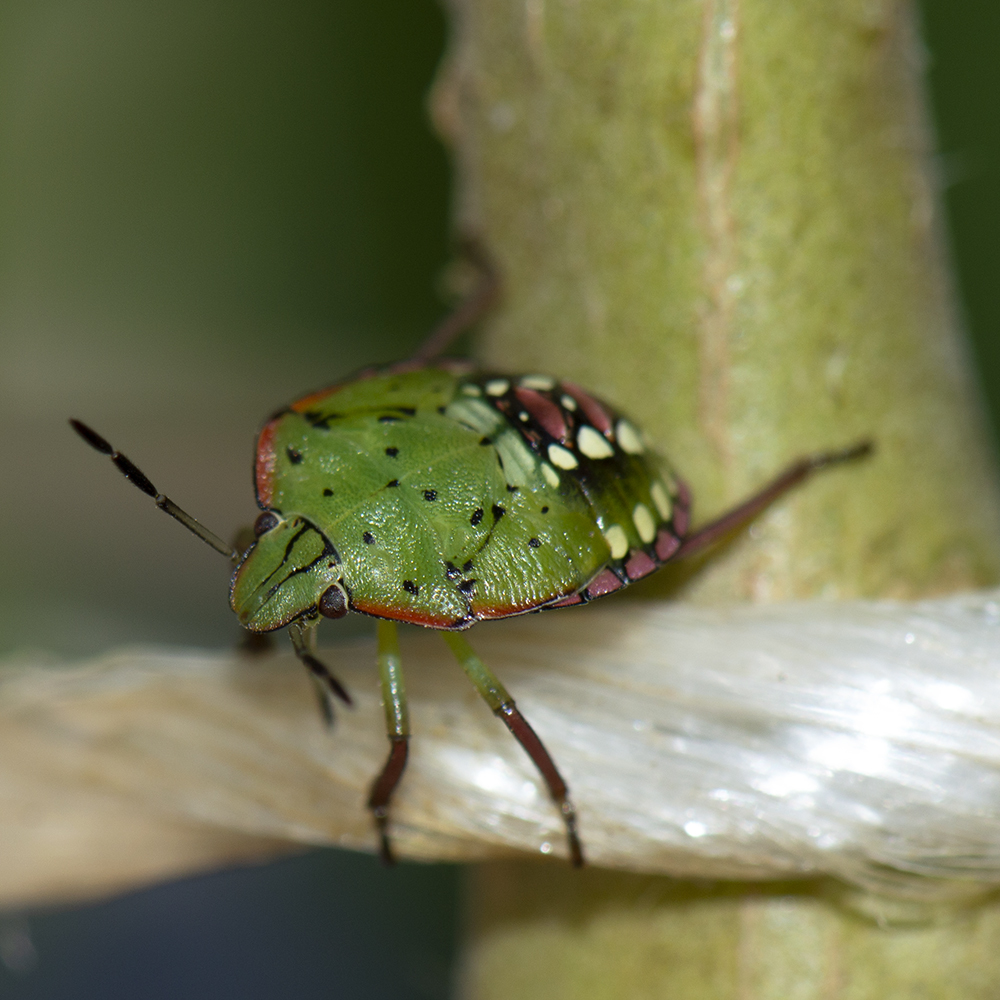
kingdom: Animalia
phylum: Arthropoda
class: Insecta
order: Hemiptera
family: Pentatomidae
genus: Nezara
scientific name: Nezara viridula
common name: Southern green stink bug
